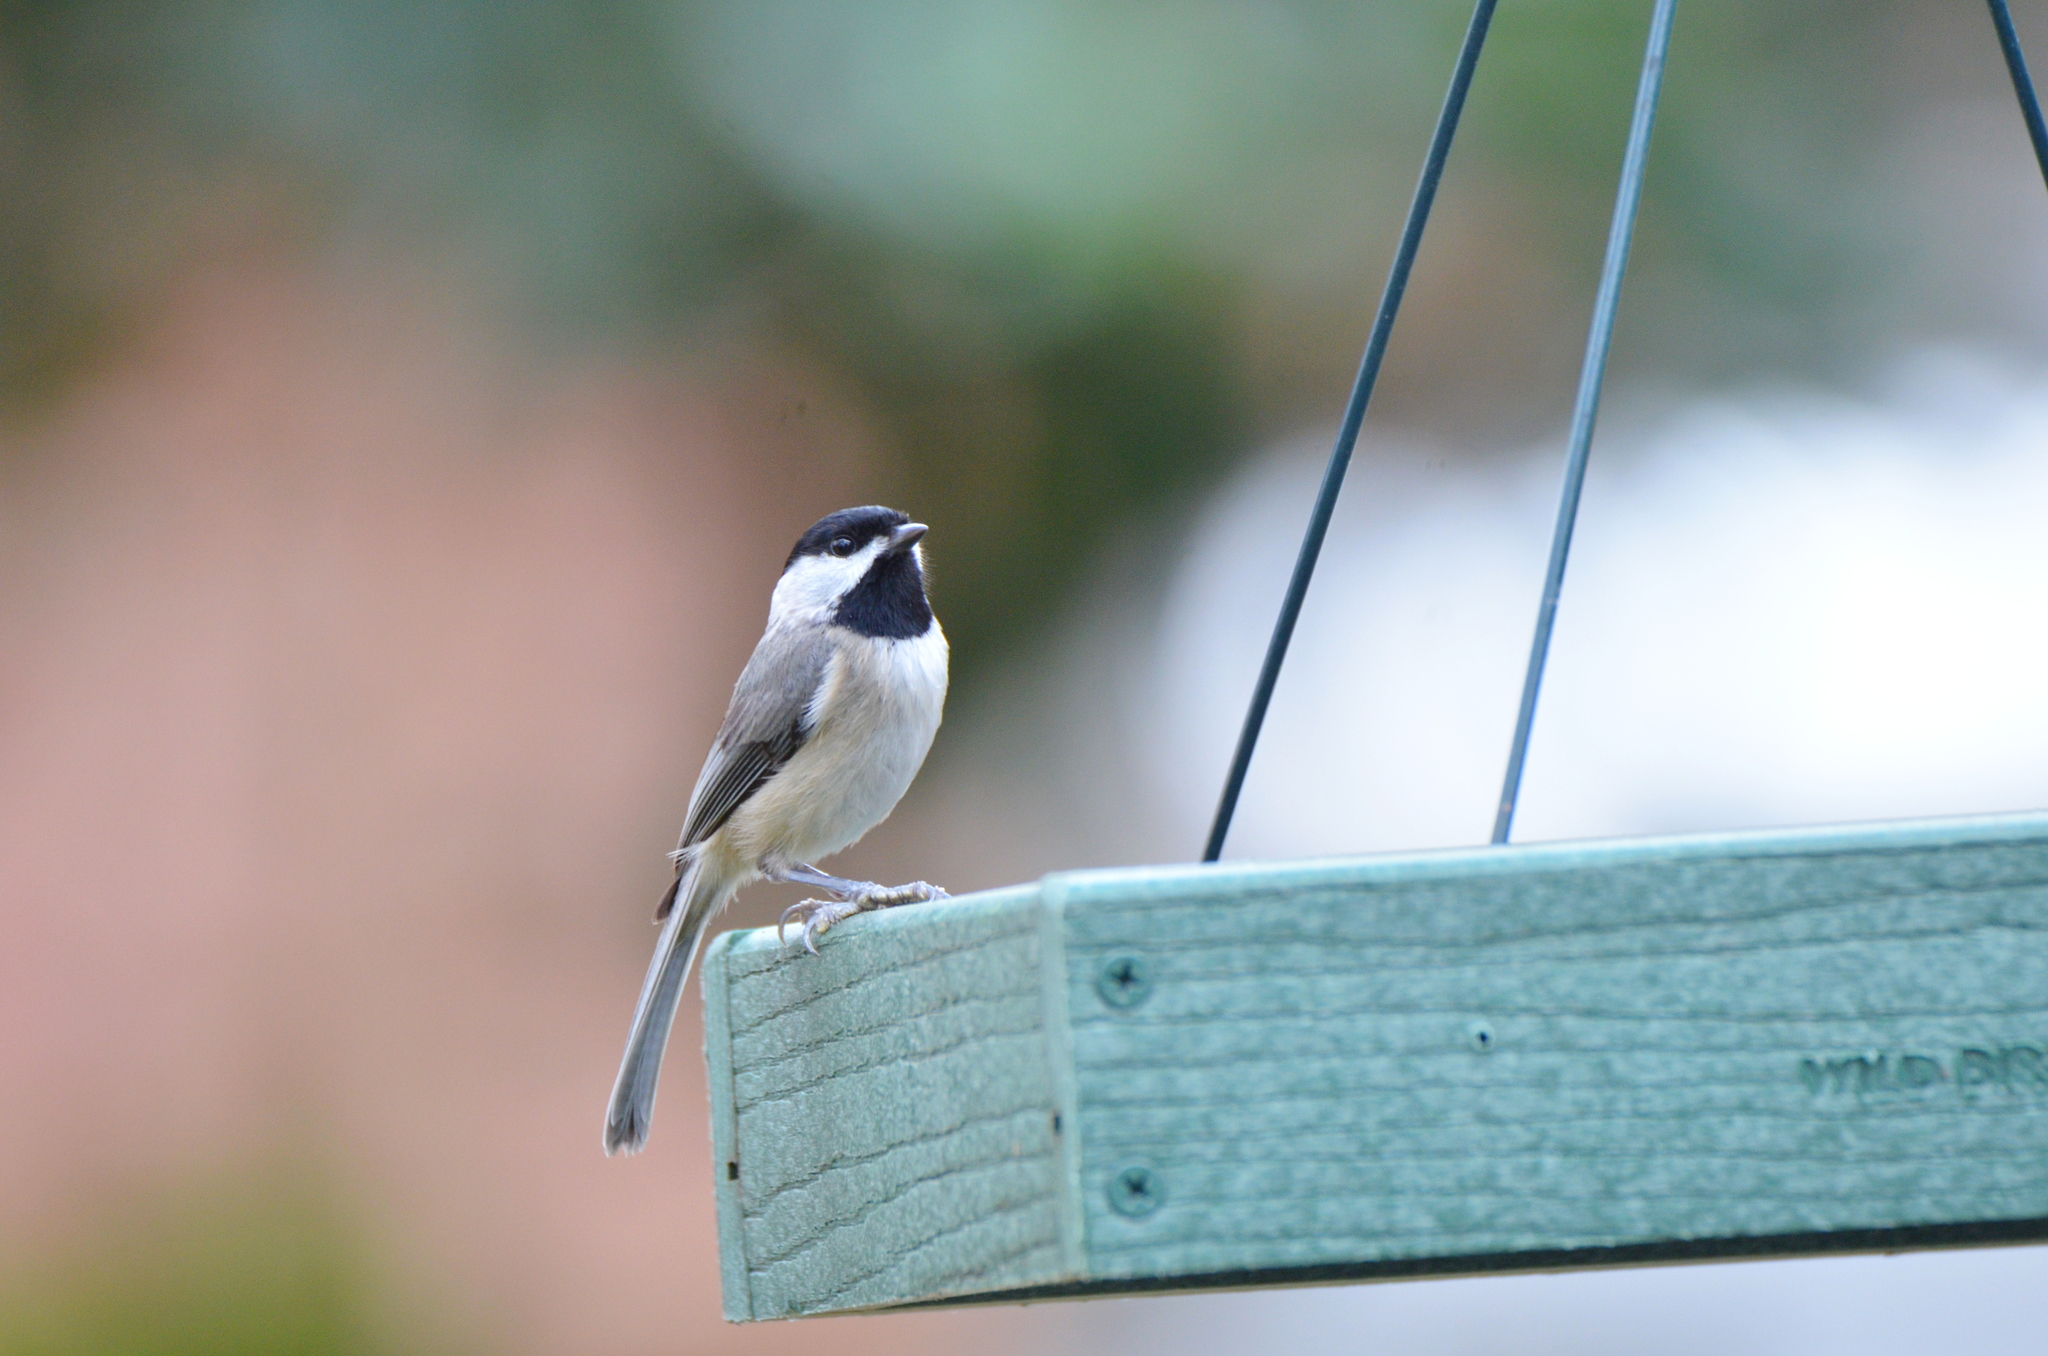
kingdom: Animalia
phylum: Chordata
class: Aves
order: Passeriformes
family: Paridae
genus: Poecile
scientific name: Poecile carolinensis
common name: Carolina chickadee
